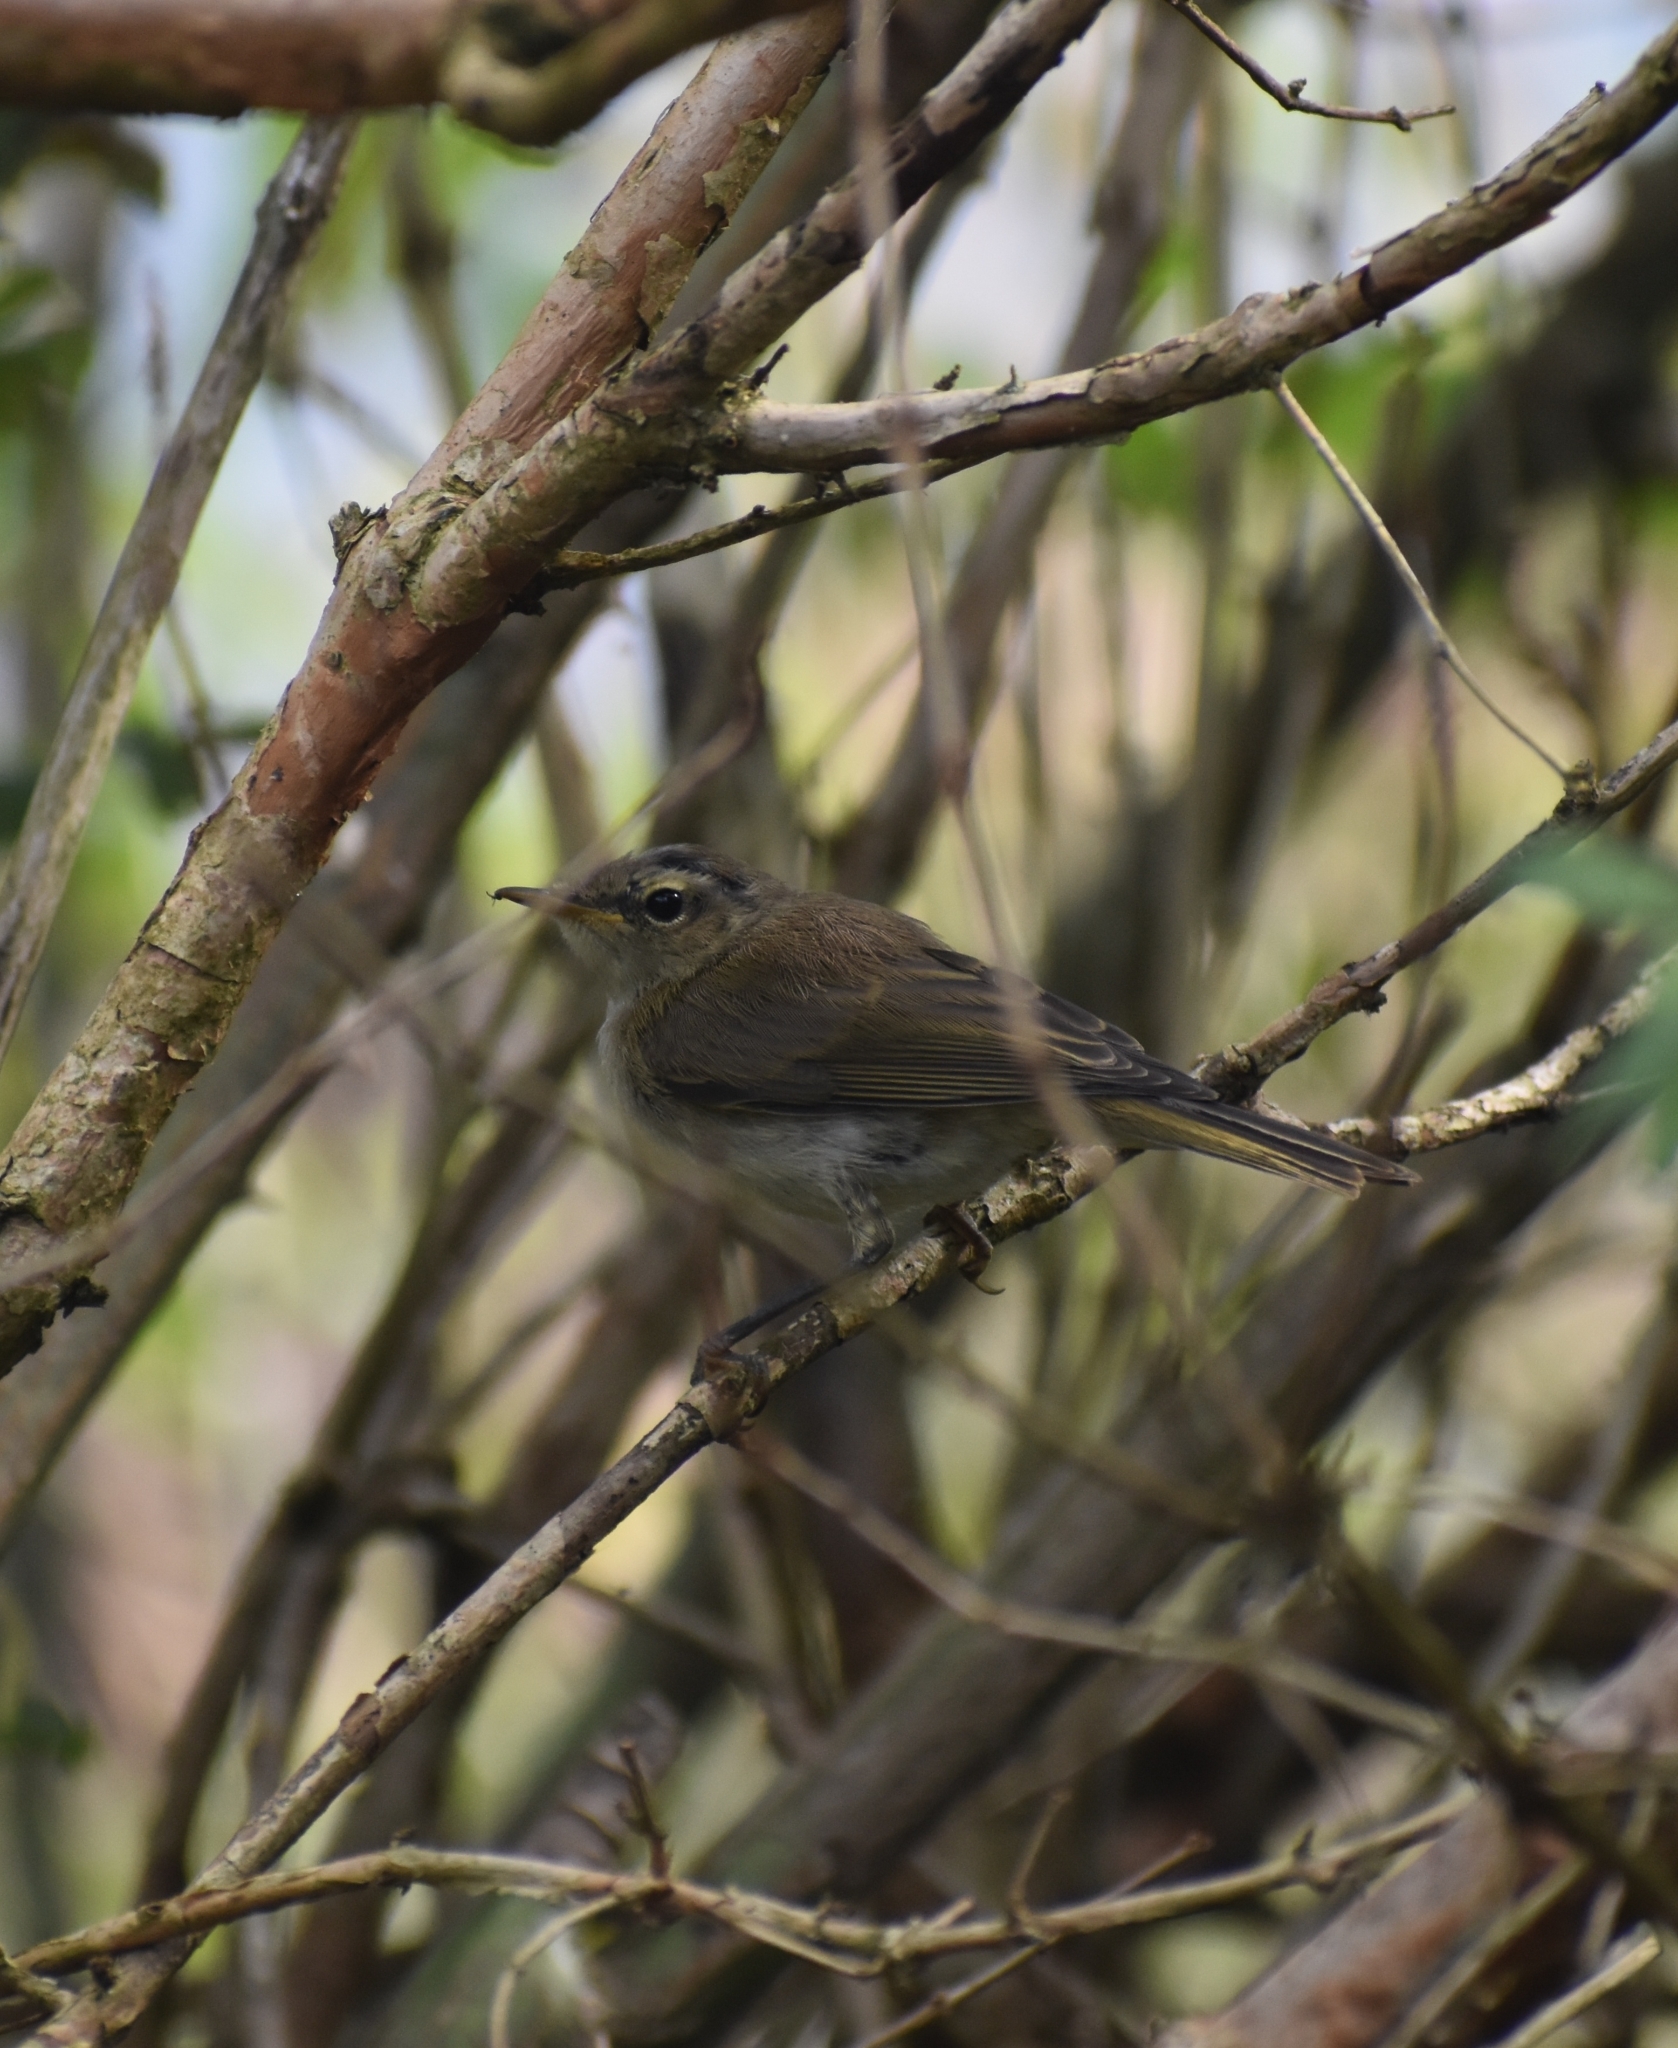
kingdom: Animalia
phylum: Chordata
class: Aves
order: Passeriformes
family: Phylloscopidae
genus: Phylloscopus
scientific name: Phylloscopus collybita
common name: Common chiffchaff
